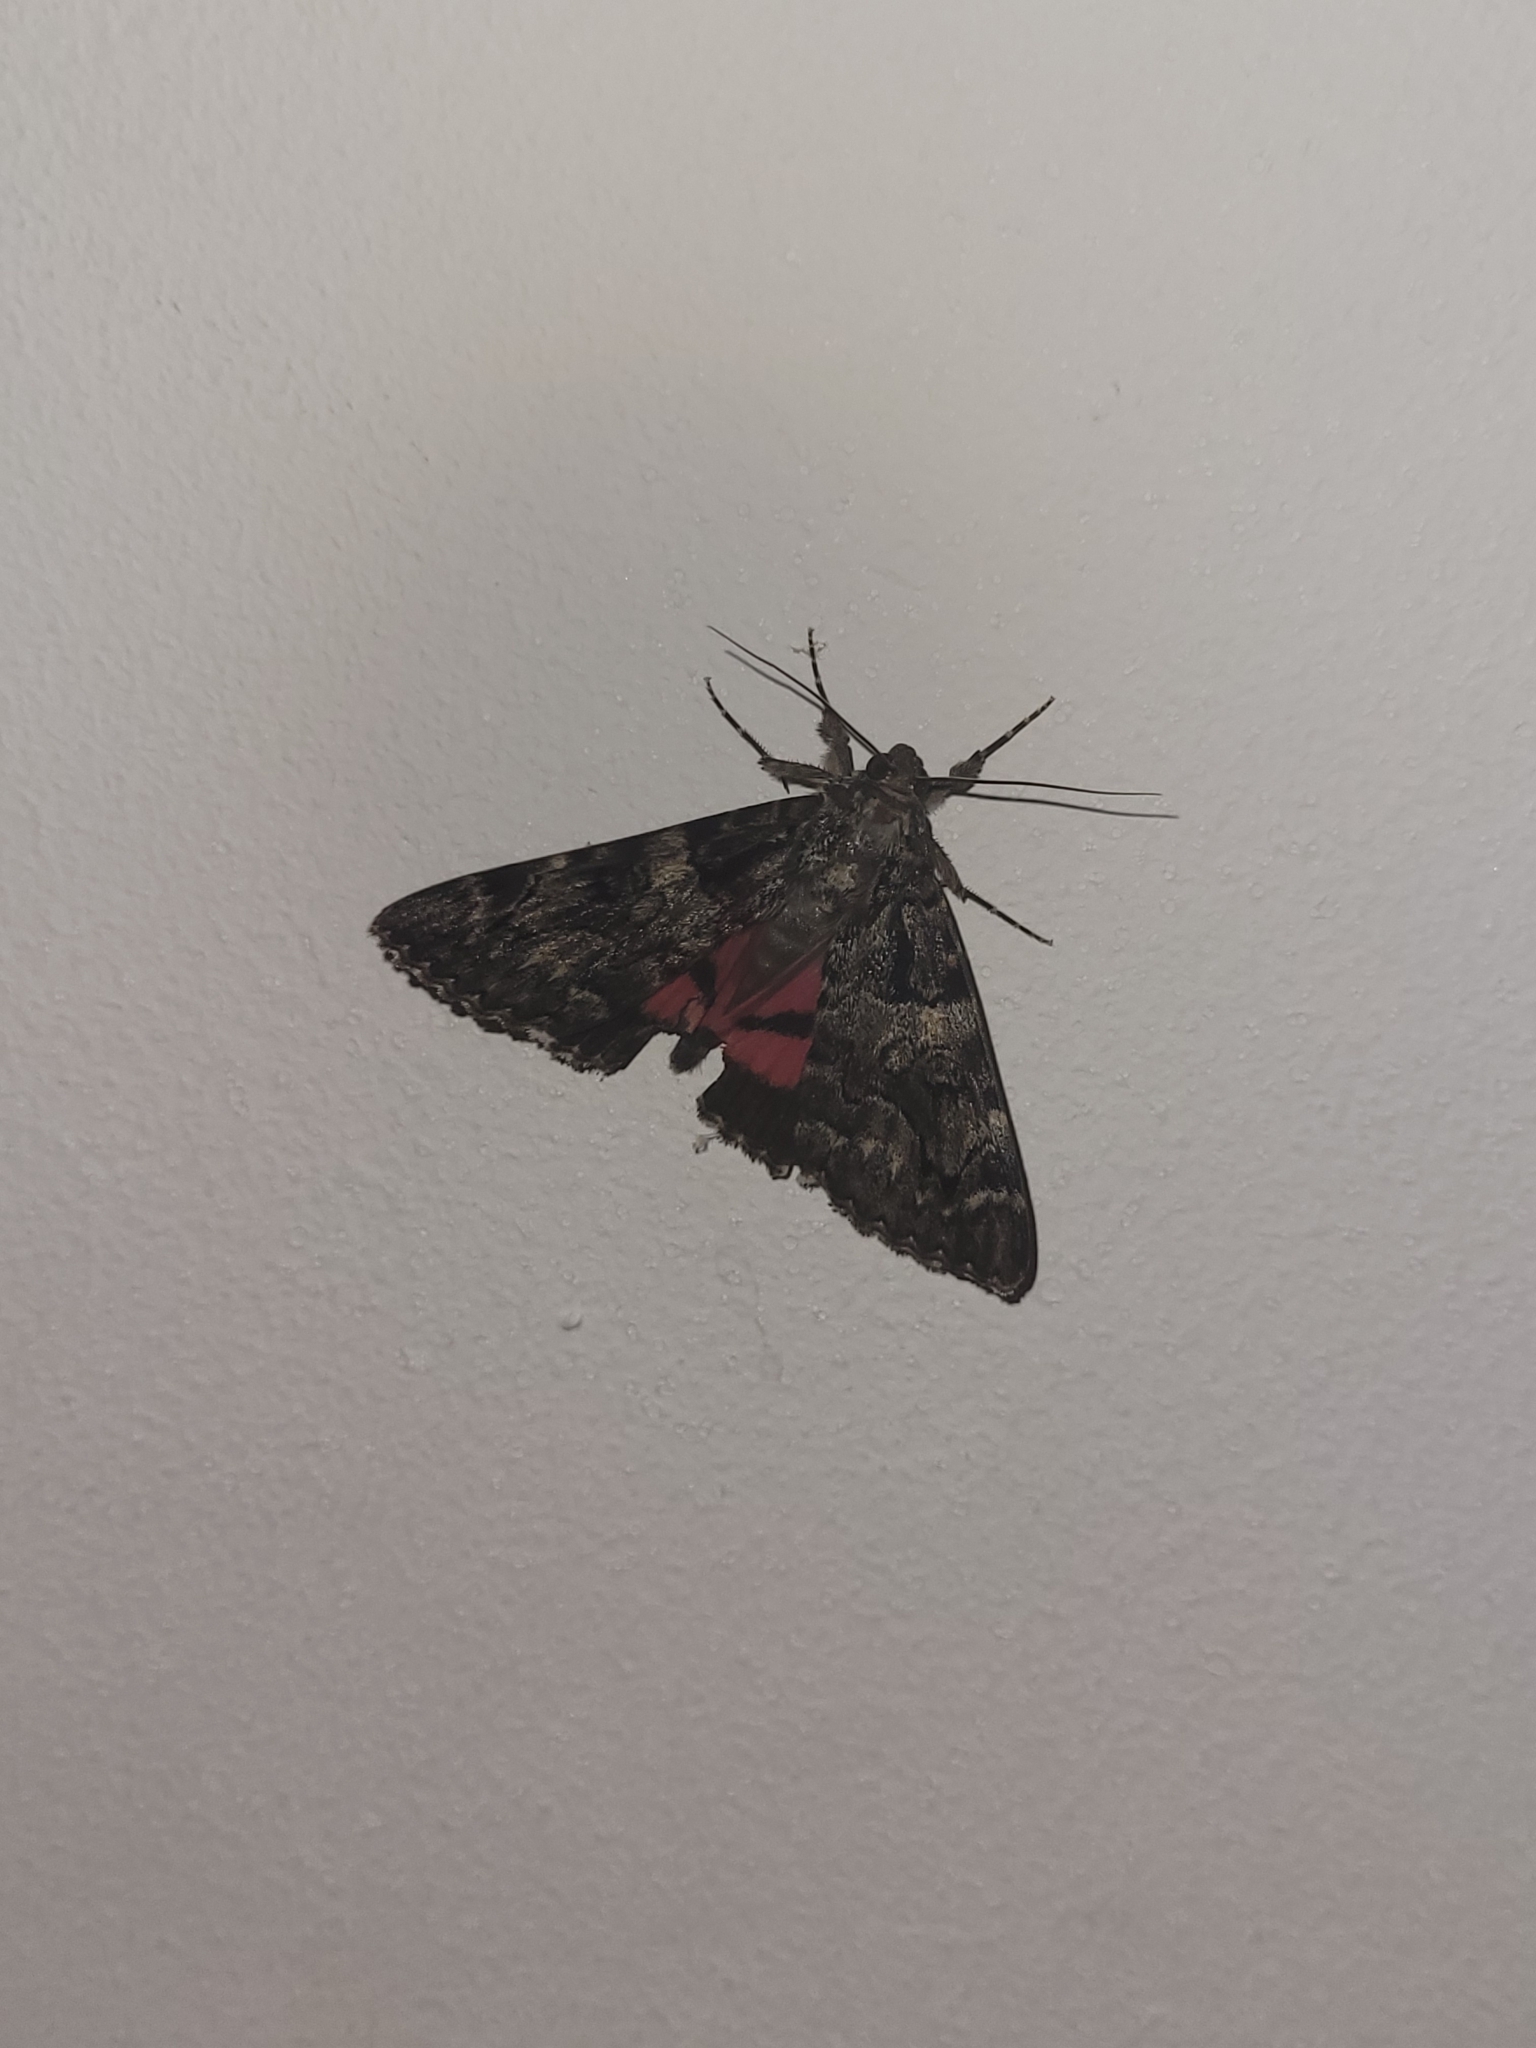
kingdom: Animalia
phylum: Arthropoda
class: Insecta
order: Lepidoptera
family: Erebidae
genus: Catocala
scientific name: Catocala coniuncta
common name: Minsmere crimson underwing
